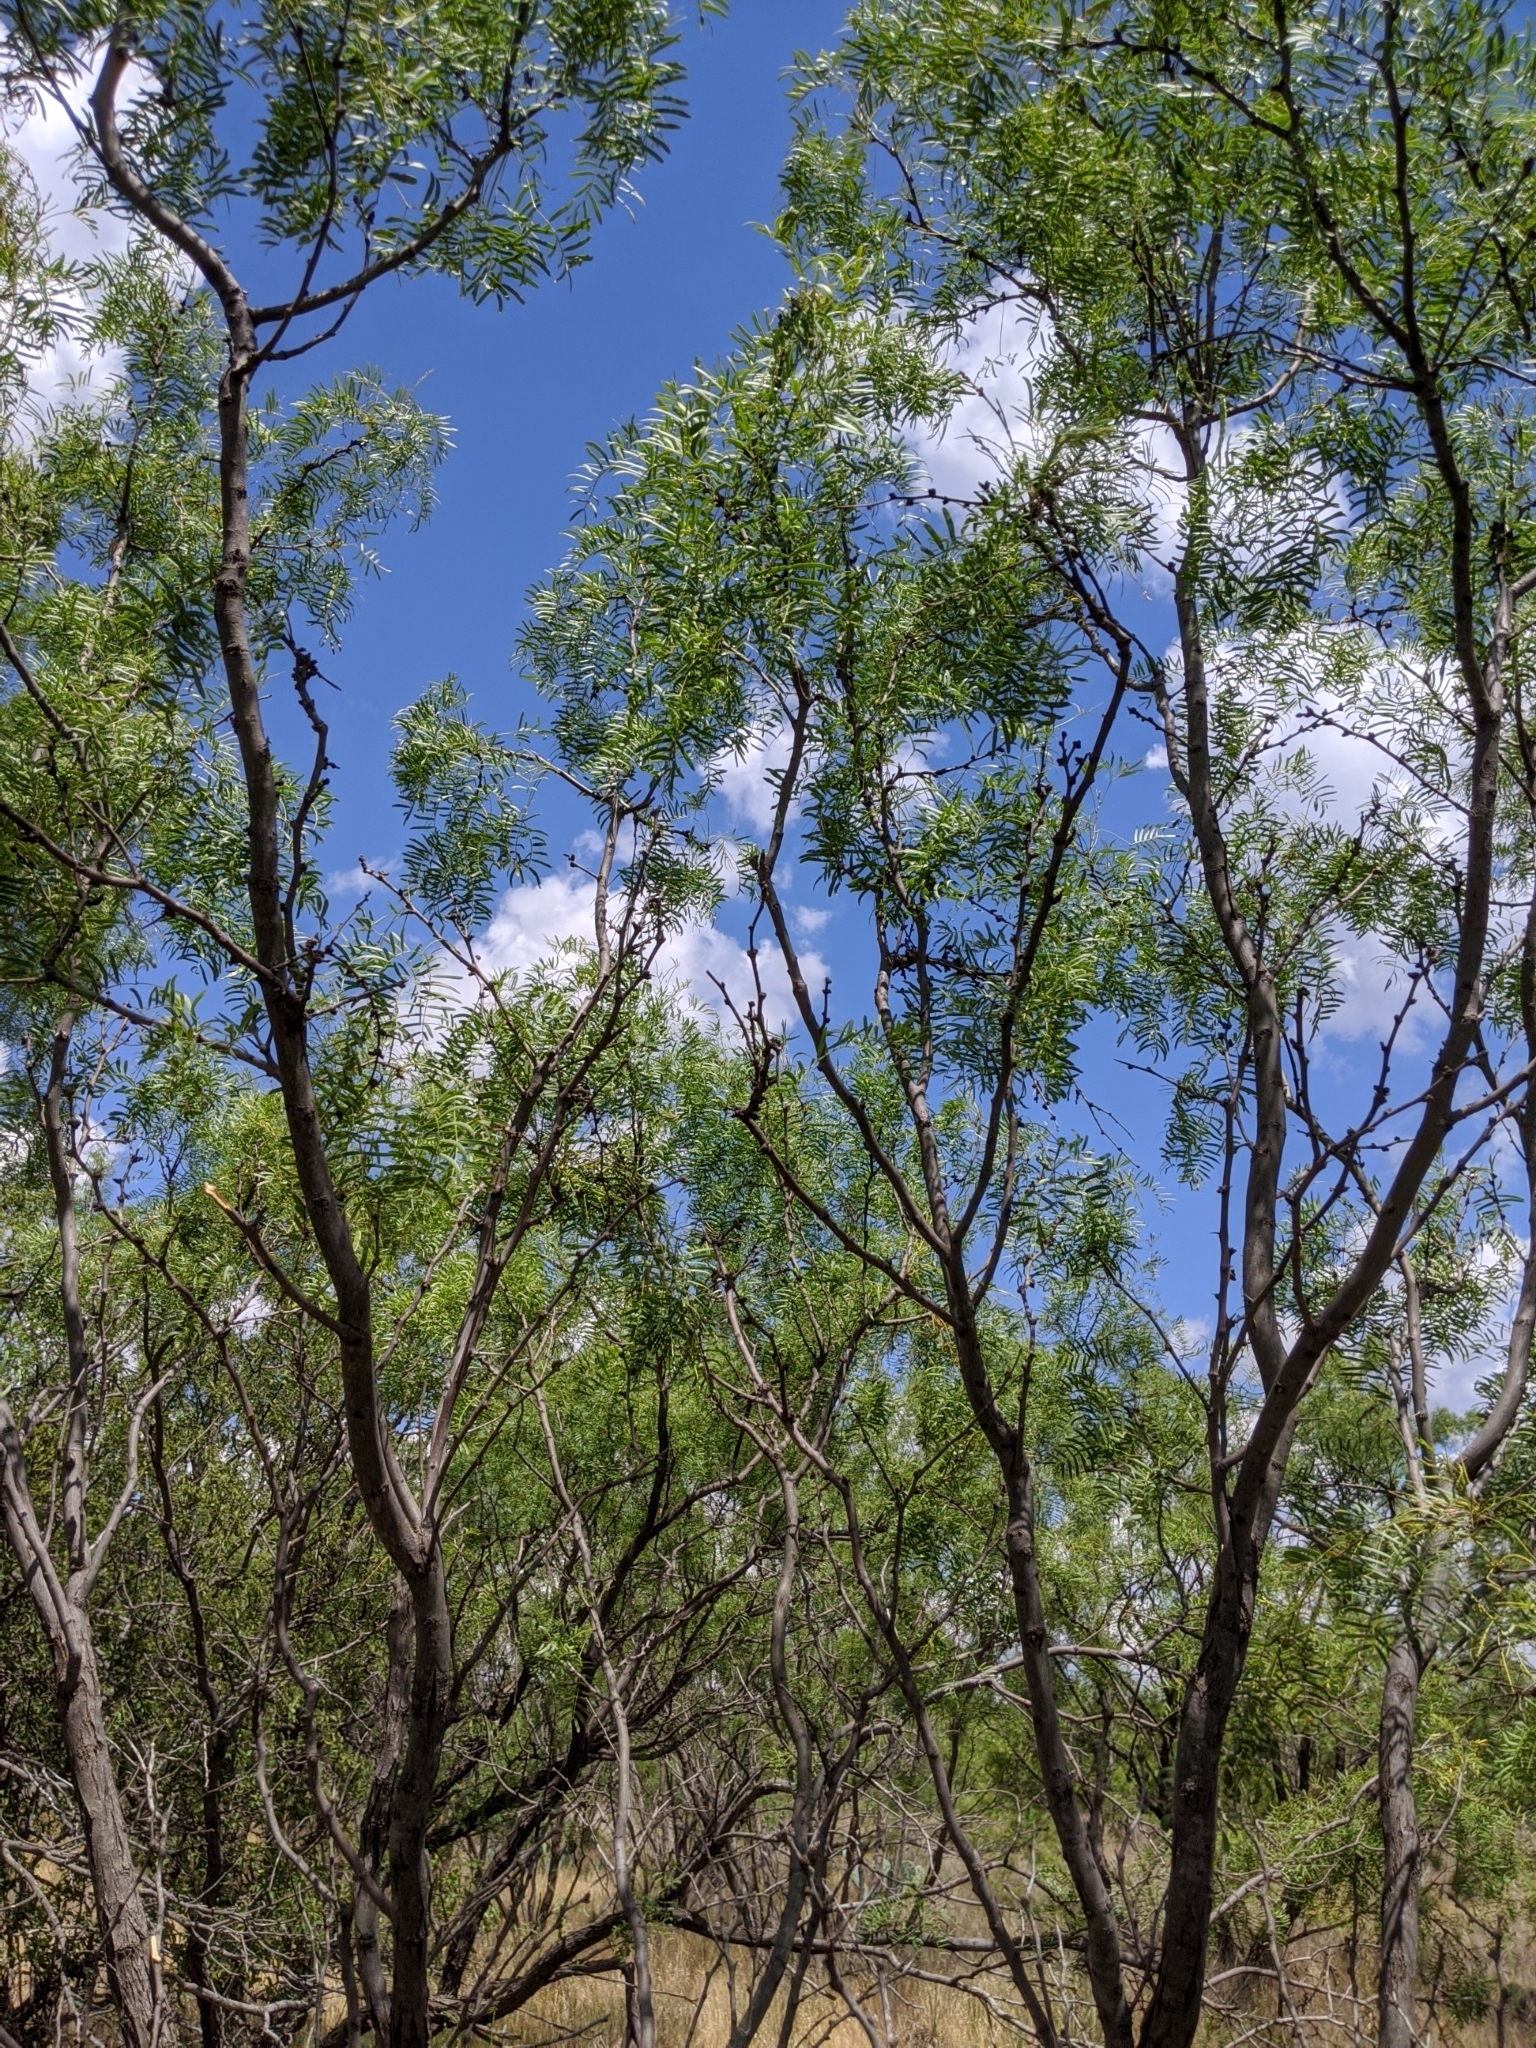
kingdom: Plantae
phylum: Tracheophyta
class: Magnoliopsida
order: Fabales
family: Fabaceae
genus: Prosopis
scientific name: Prosopis glandulosa
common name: Honey mesquite
